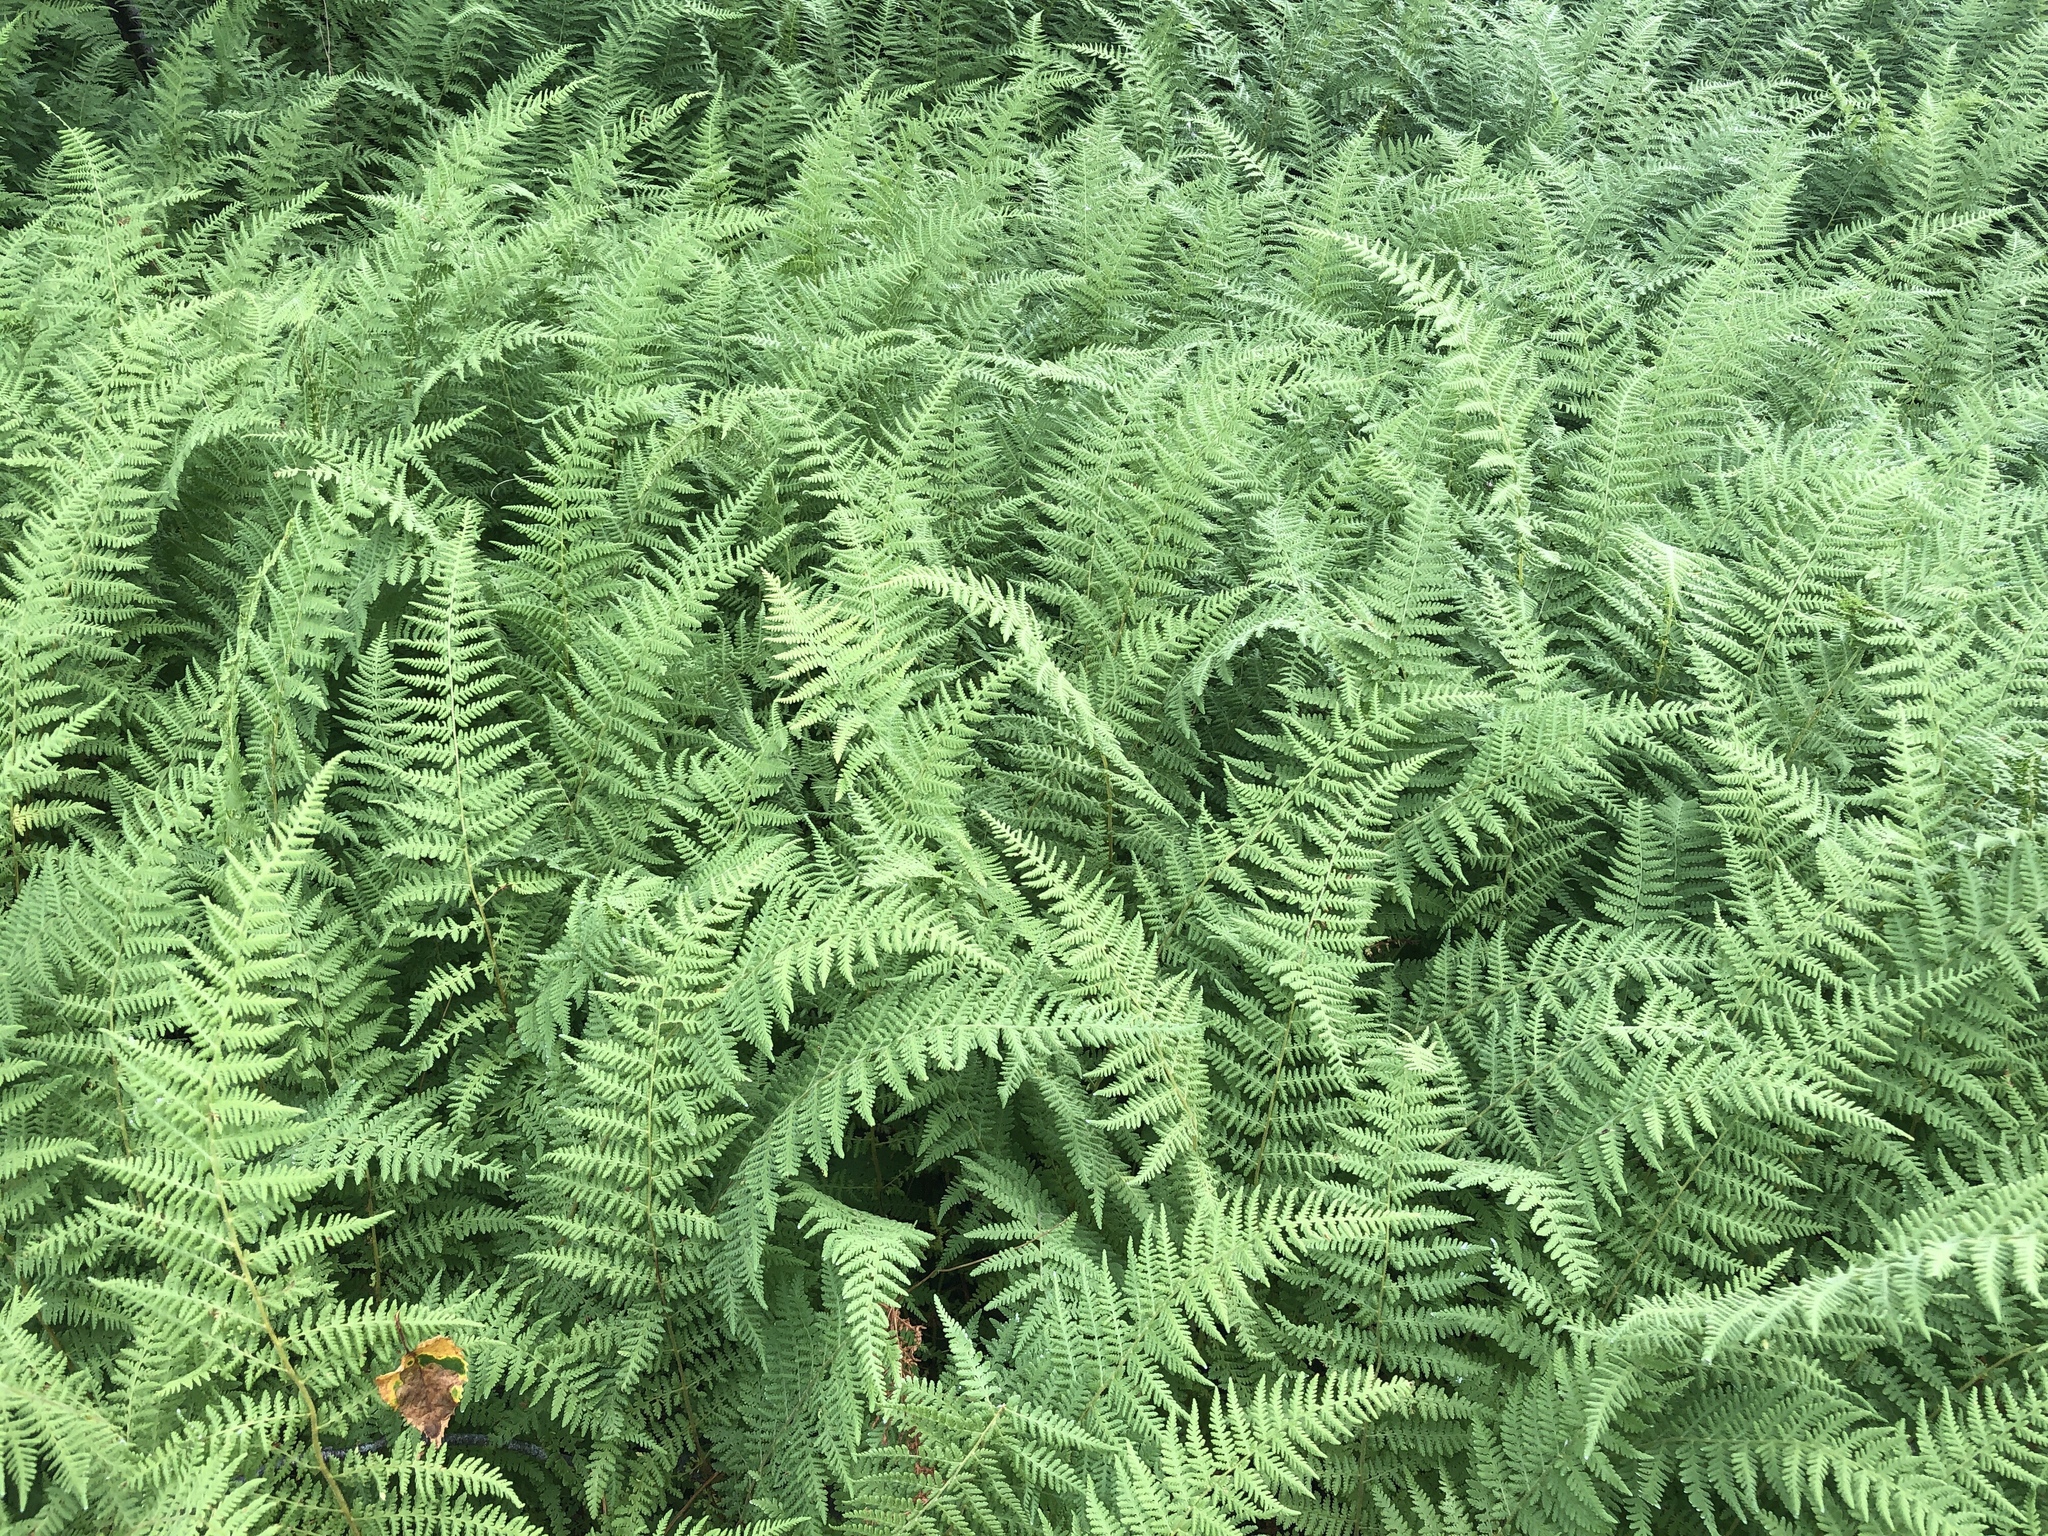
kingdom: Plantae
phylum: Tracheophyta
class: Polypodiopsida
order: Polypodiales
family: Dennstaedtiaceae
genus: Sitobolium
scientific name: Sitobolium punctilobum
